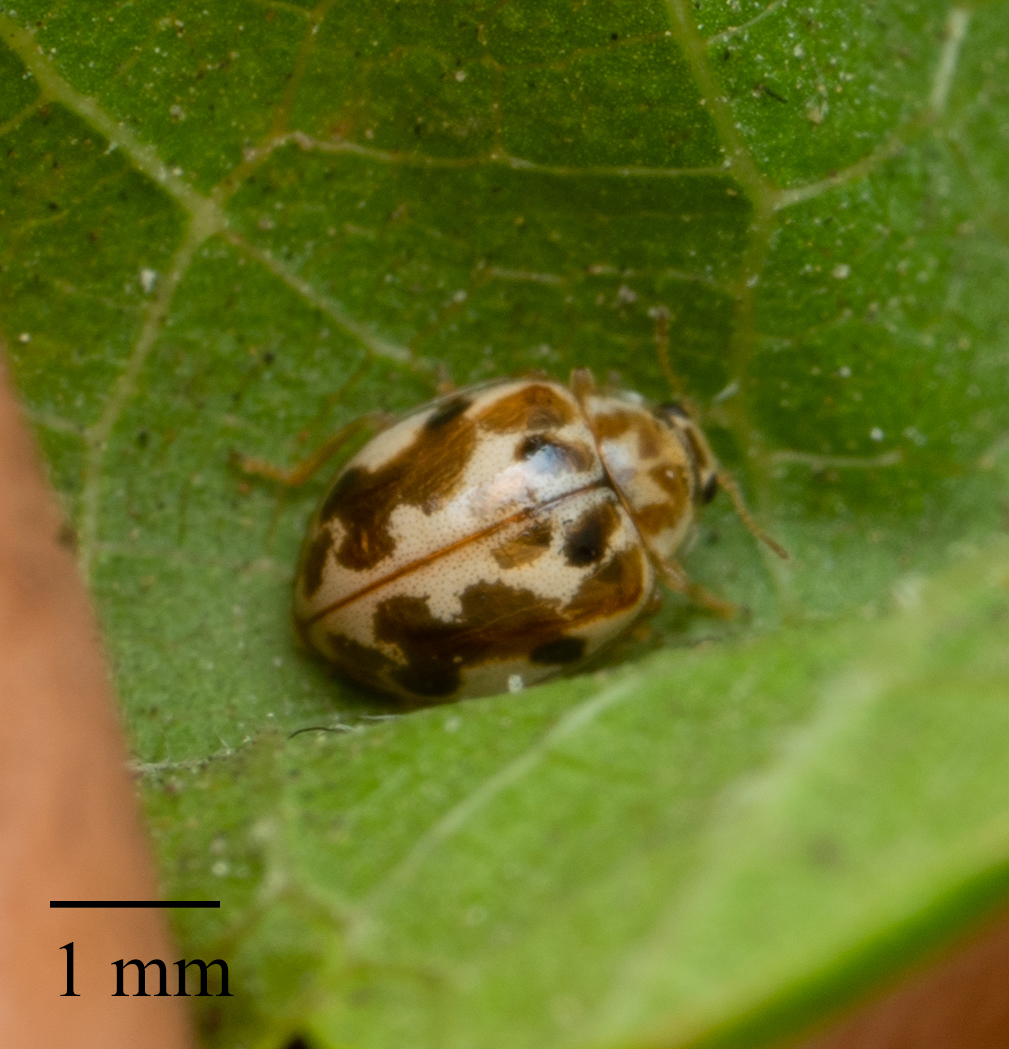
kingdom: Animalia
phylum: Arthropoda
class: Insecta
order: Coleoptera
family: Coccinellidae
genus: Psyllobora
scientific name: Psyllobora vigintimaculata
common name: Ladybird beetle
